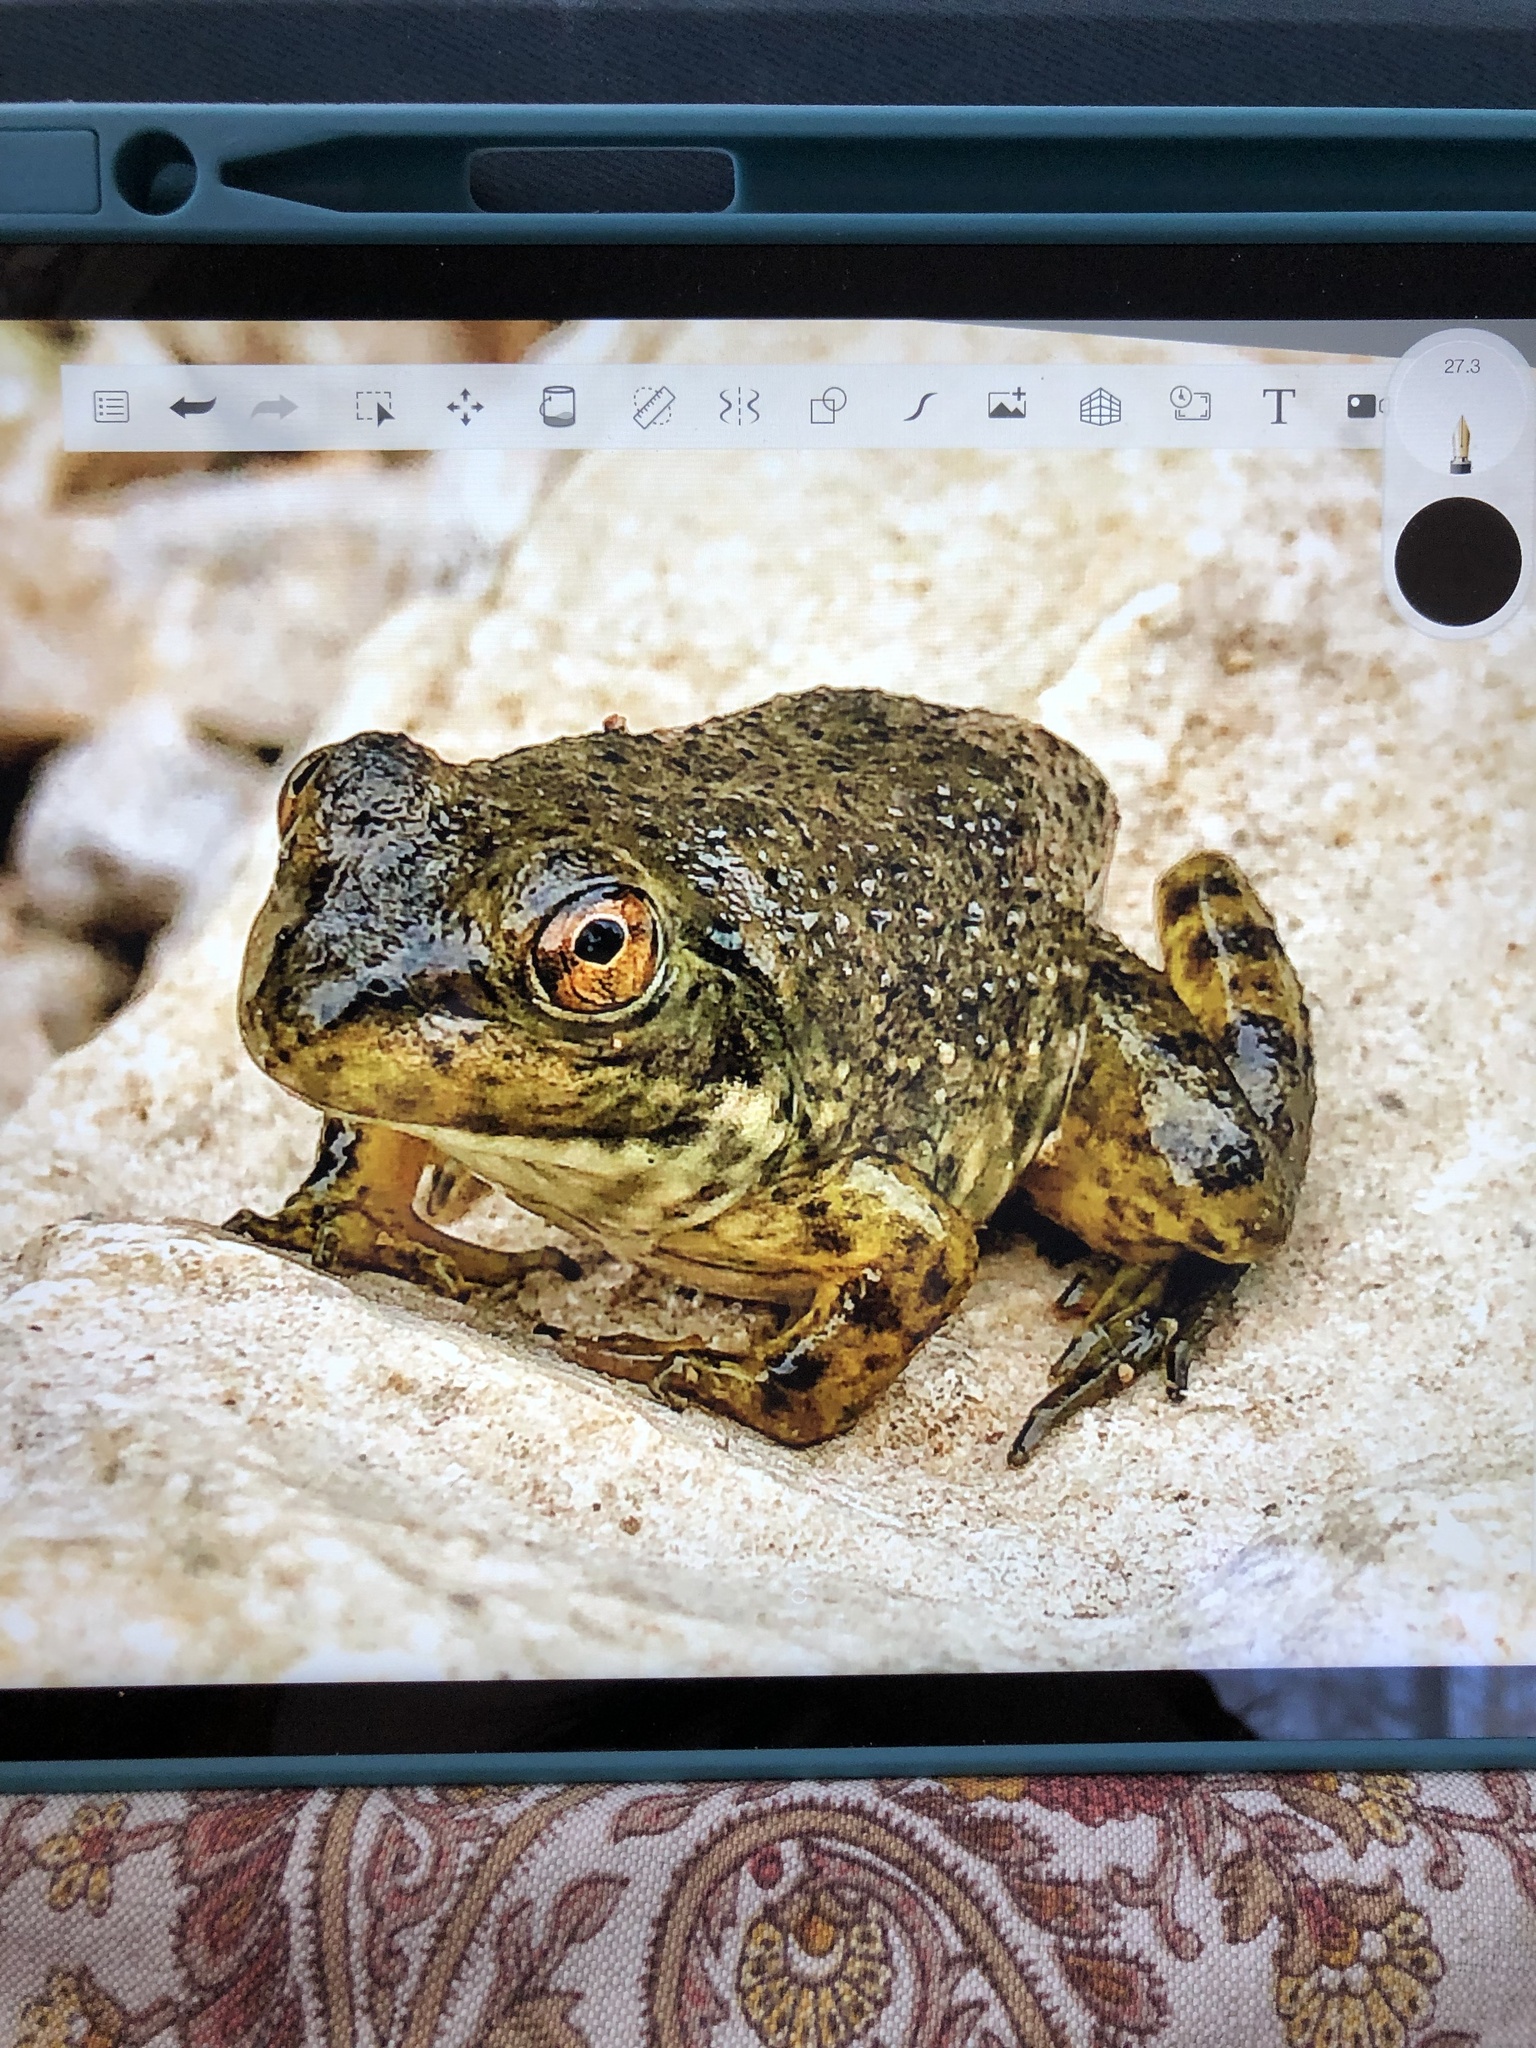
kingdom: Animalia
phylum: Chordata
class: Amphibia
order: Anura
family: Ranidae
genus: Lithobates
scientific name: Lithobates catesbeianus
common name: American bullfrog
